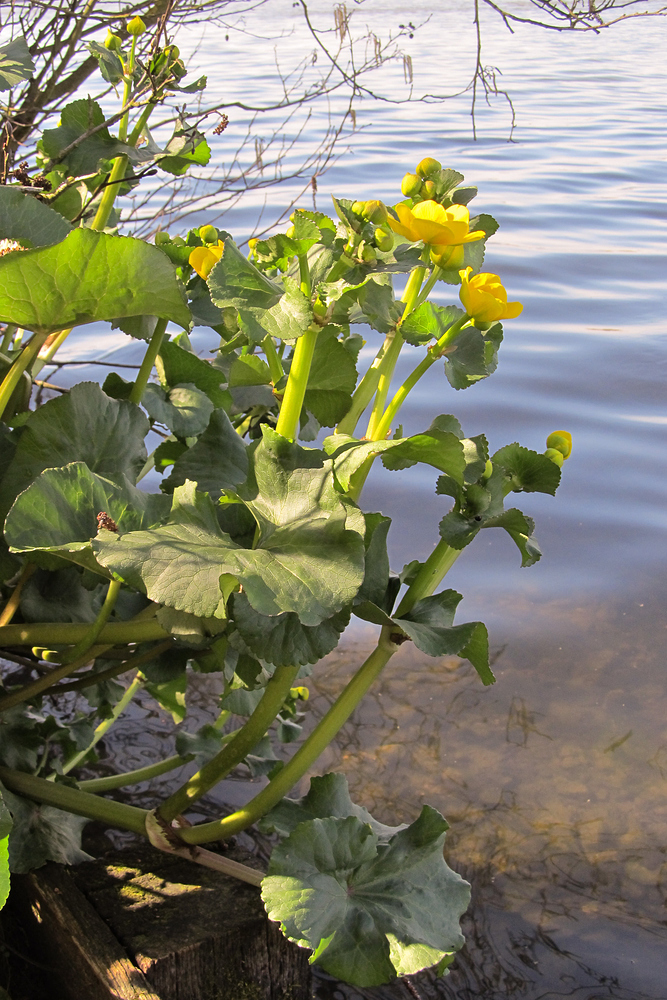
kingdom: Plantae
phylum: Tracheophyta
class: Magnoliopsida
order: Ranunculales
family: Ranunculaceae
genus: Caltha
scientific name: Caltha palustris
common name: Marsh marigold
